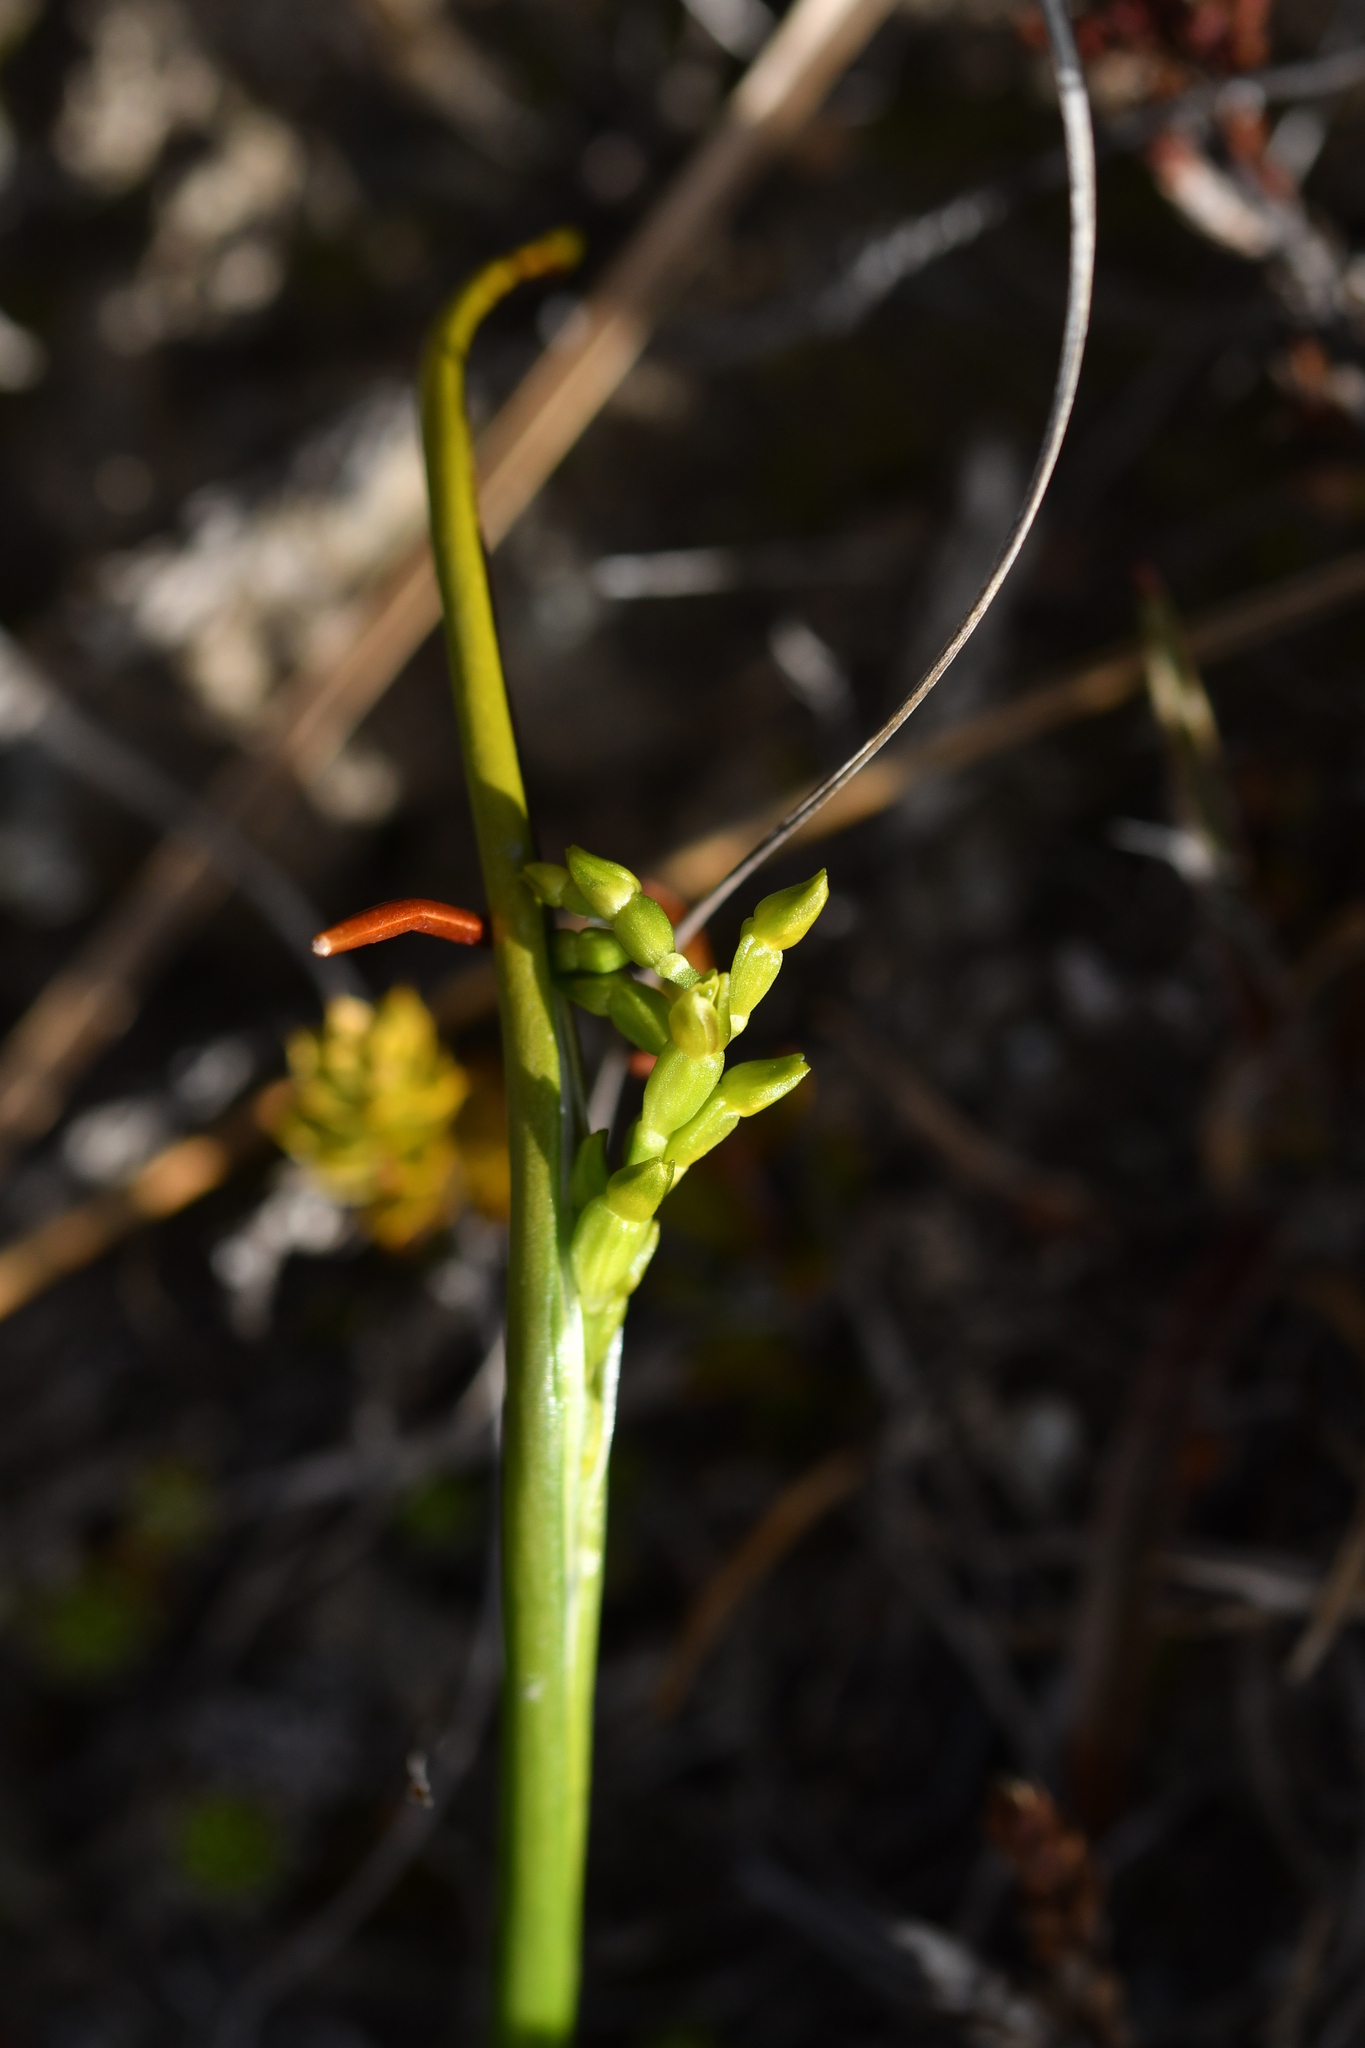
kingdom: Plantae
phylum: Tracheophyta
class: Liliopsida
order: Asparagales
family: Orchidaceae
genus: Prasophyllum
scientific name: Prasophyllum colensoi
